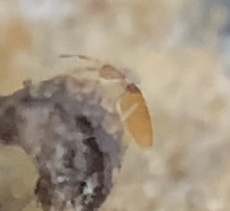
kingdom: Animalia
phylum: Arthropoda
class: Collembola
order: Entomobryomorpha
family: Entomobryidae
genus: Entomobrya
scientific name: Entomobrya atrocincta
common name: Springtail
